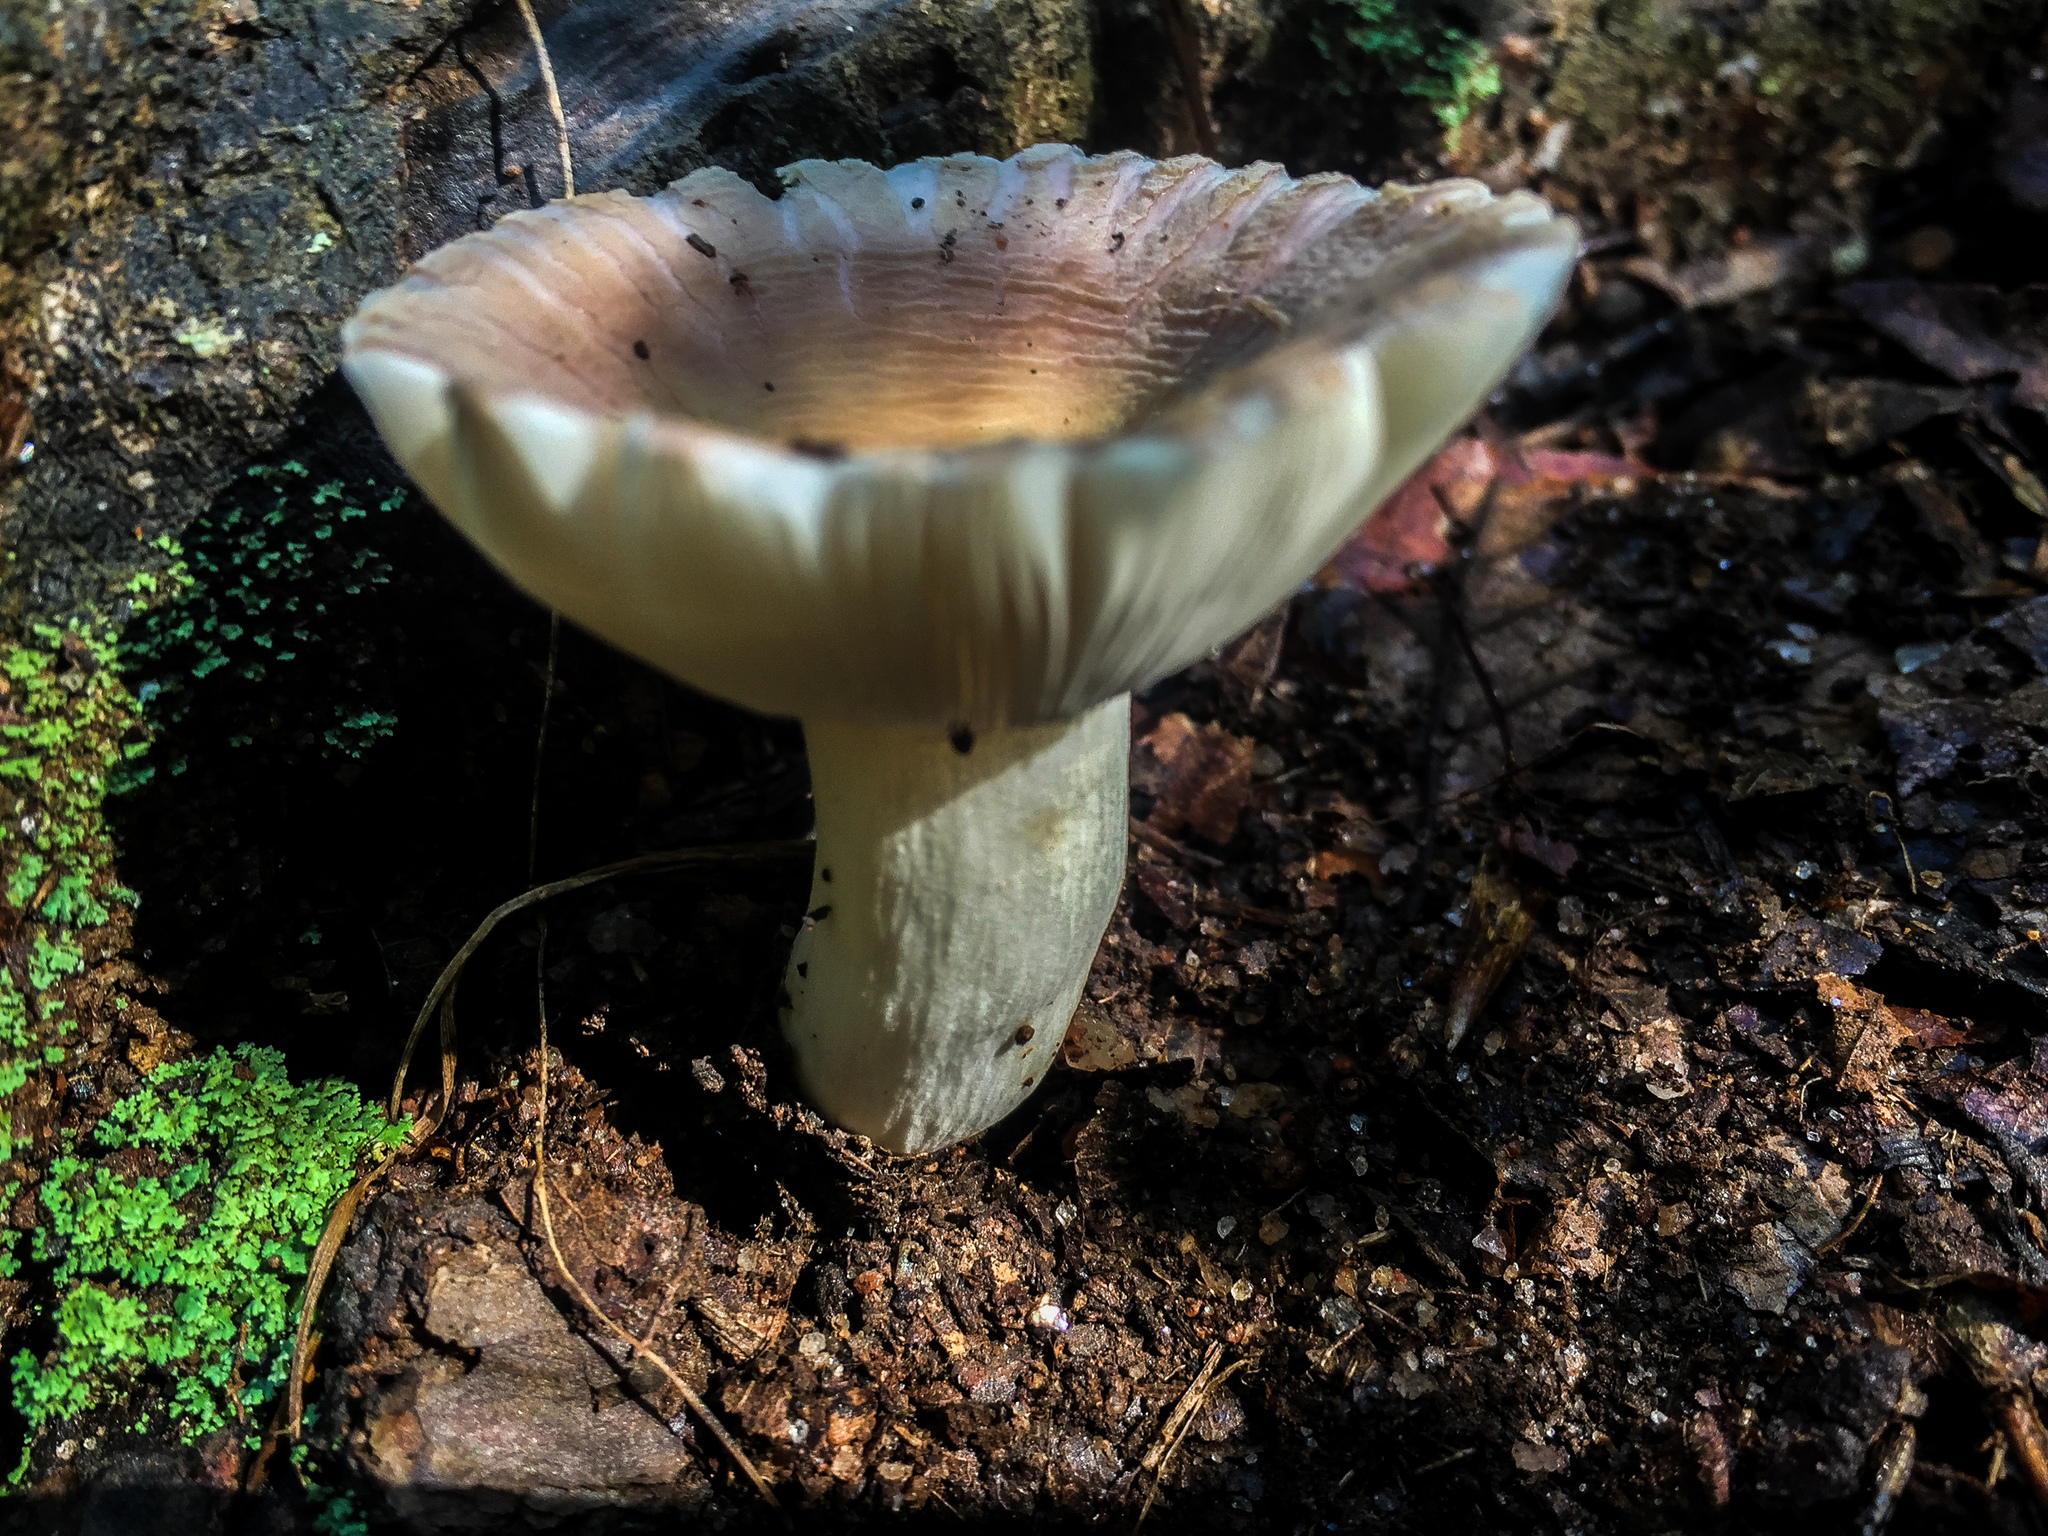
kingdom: Fungi
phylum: Basidiomycota
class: Agaricomycetes
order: Russulales
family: Russulaceae
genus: Russula
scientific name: Russula crustosa
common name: Green quilt russula
